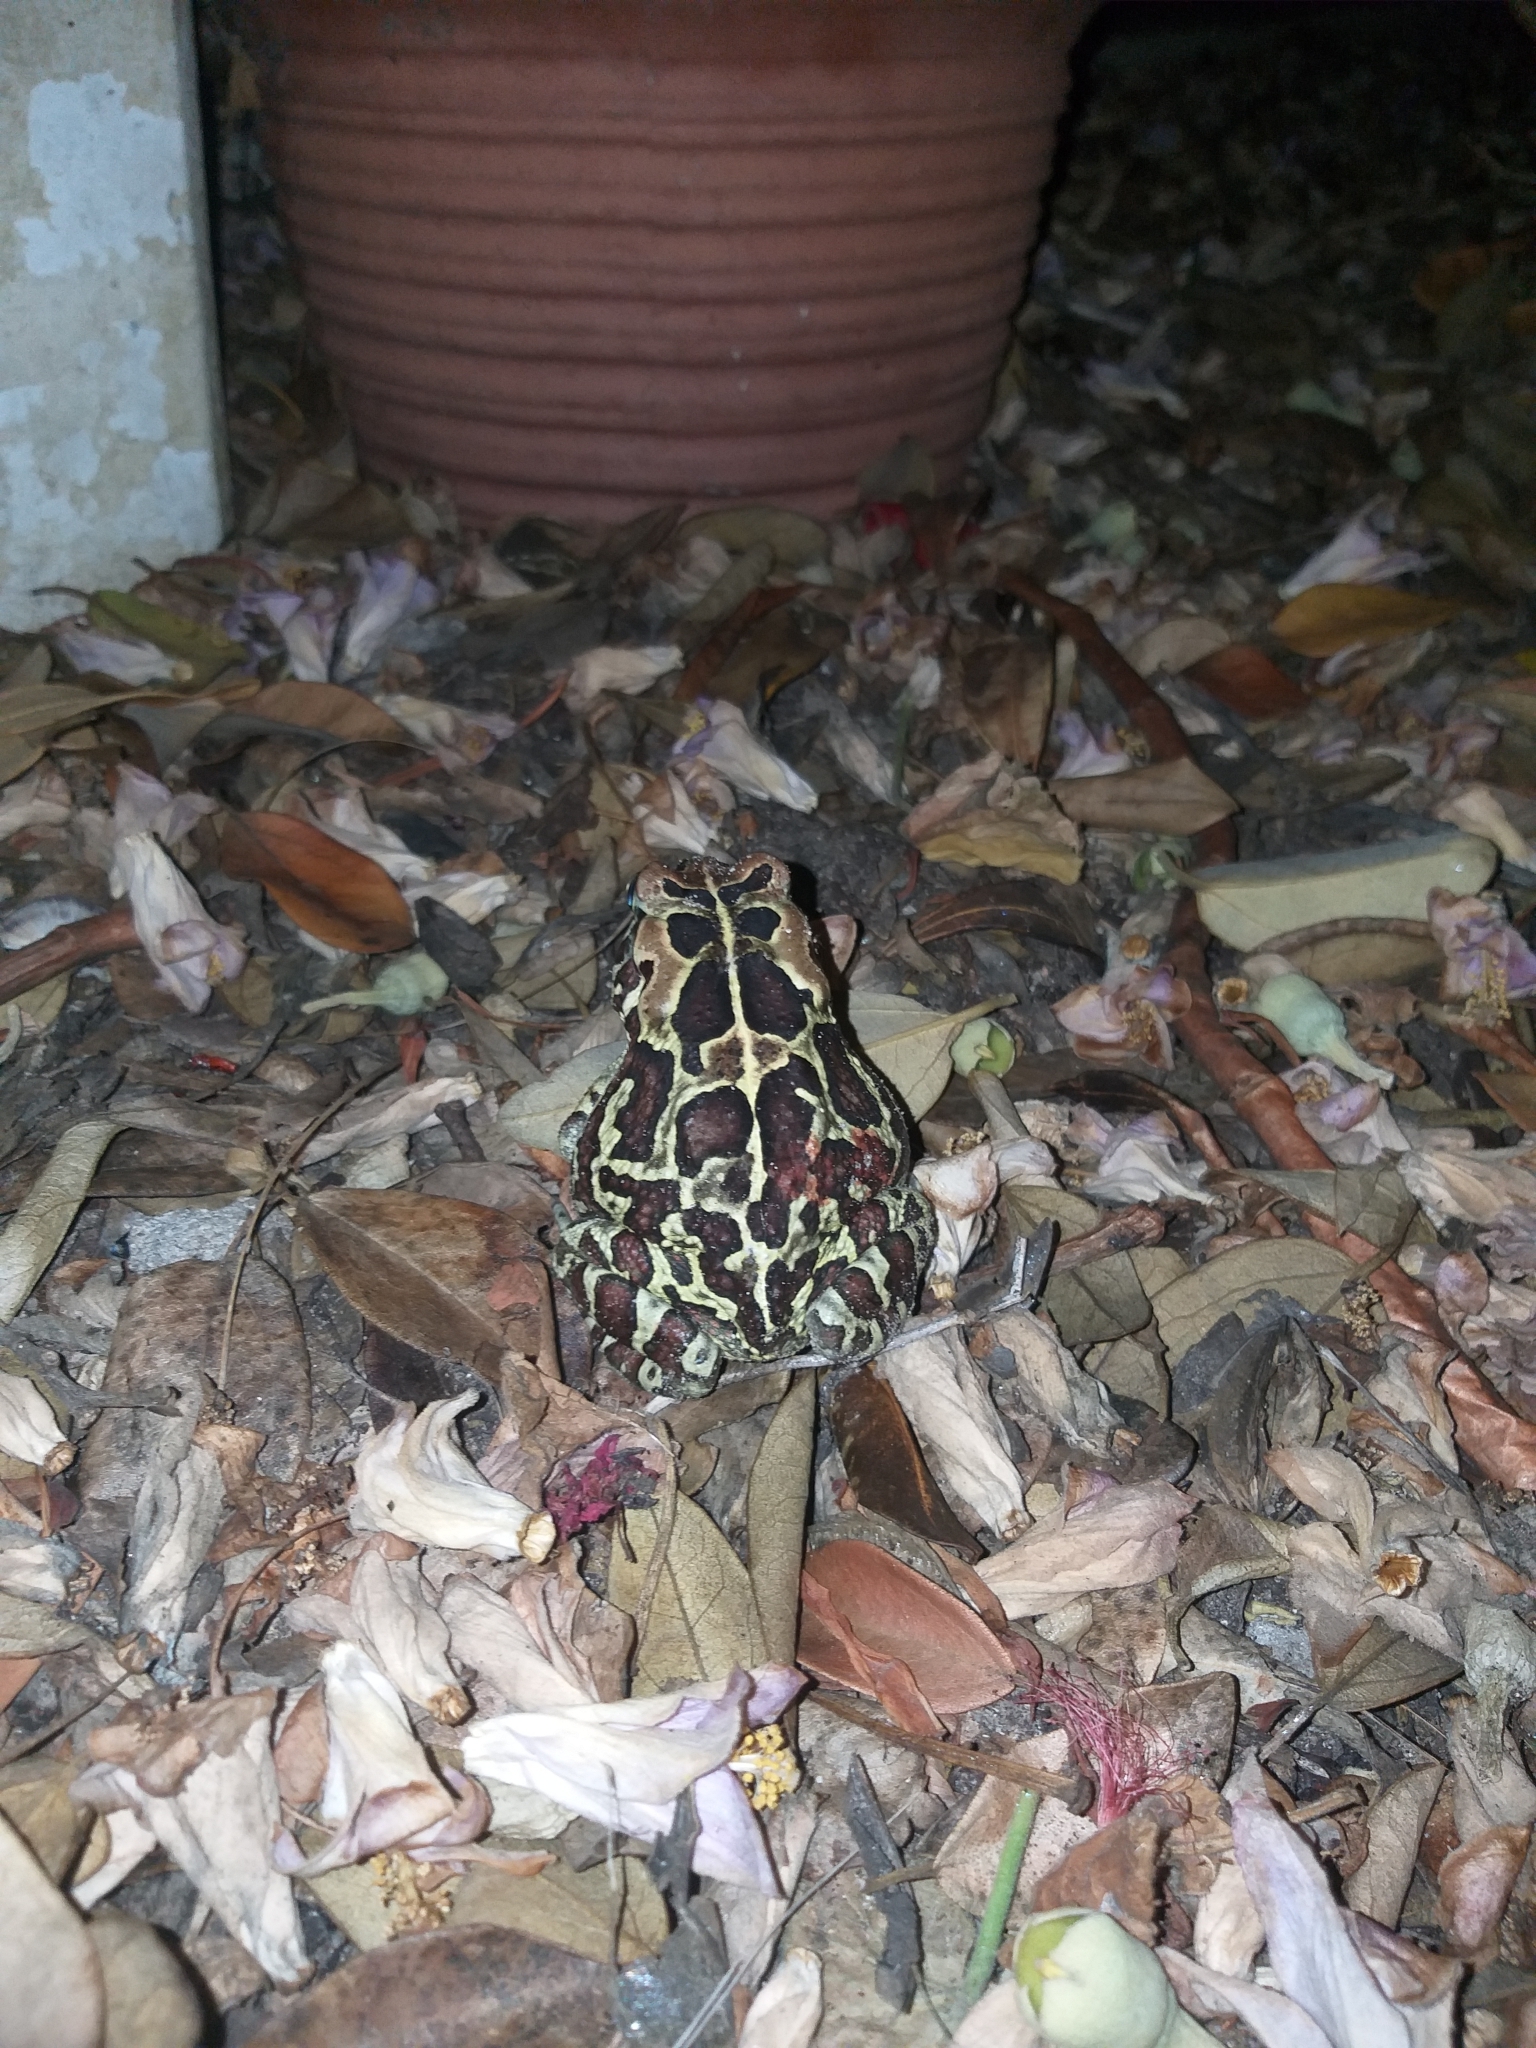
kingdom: Animalia
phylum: Chordata
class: Amphibia
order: Anura
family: Bufonidae
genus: Sclerophrys
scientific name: Sclerophrys pantherina
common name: Panther toad
